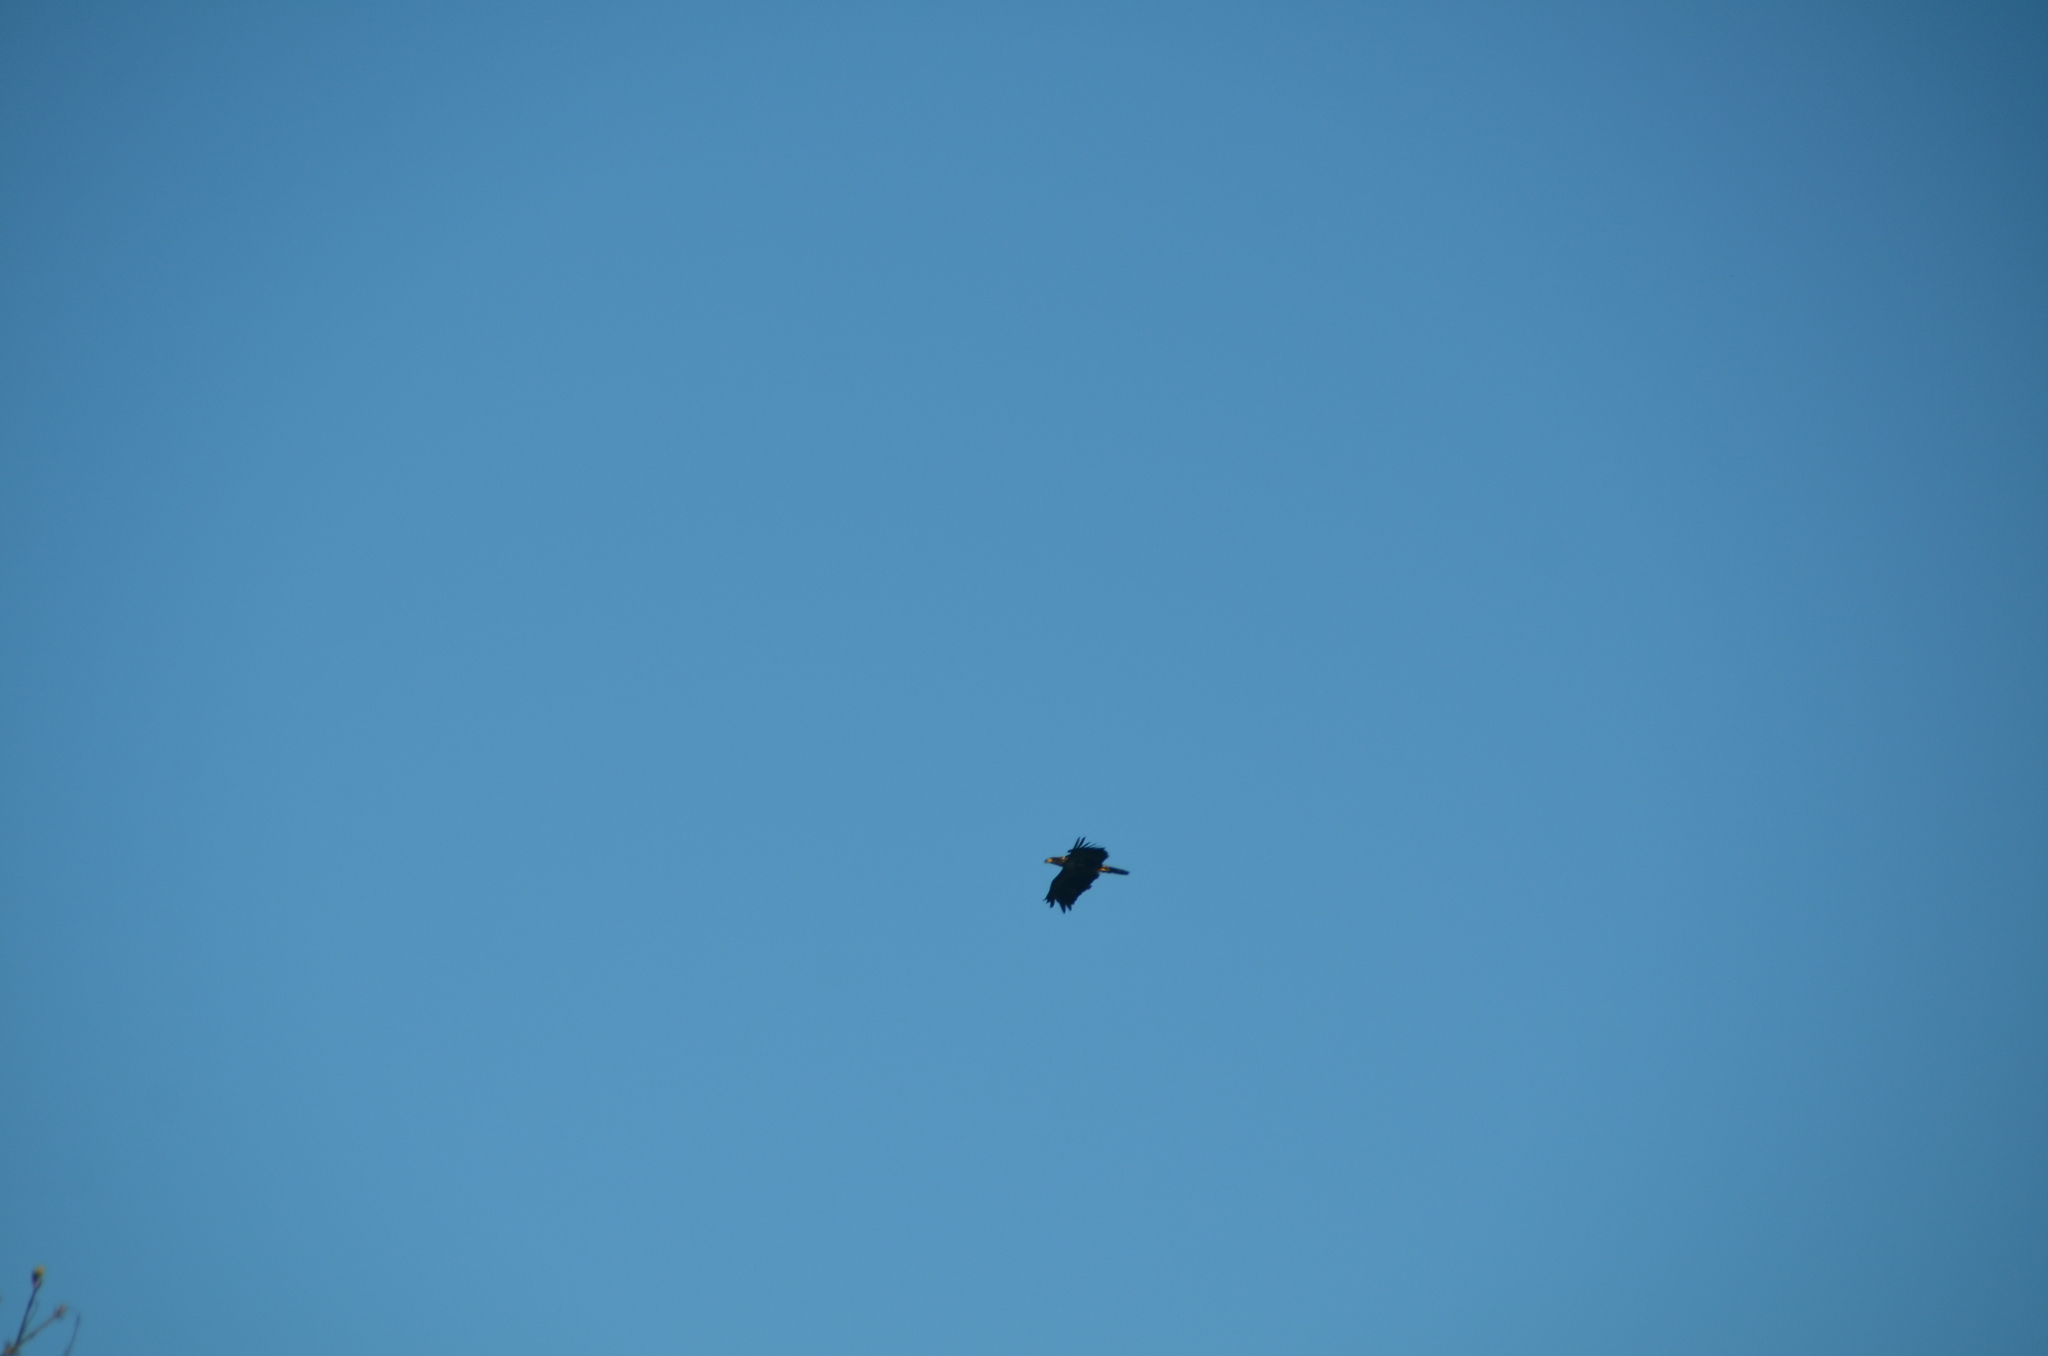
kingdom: Animalia
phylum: Chordata
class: Aves
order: Accipitriformes
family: Accipitridae
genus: Haliaeetus
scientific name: Haliaeetus leucocephalus
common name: Bald eagle
